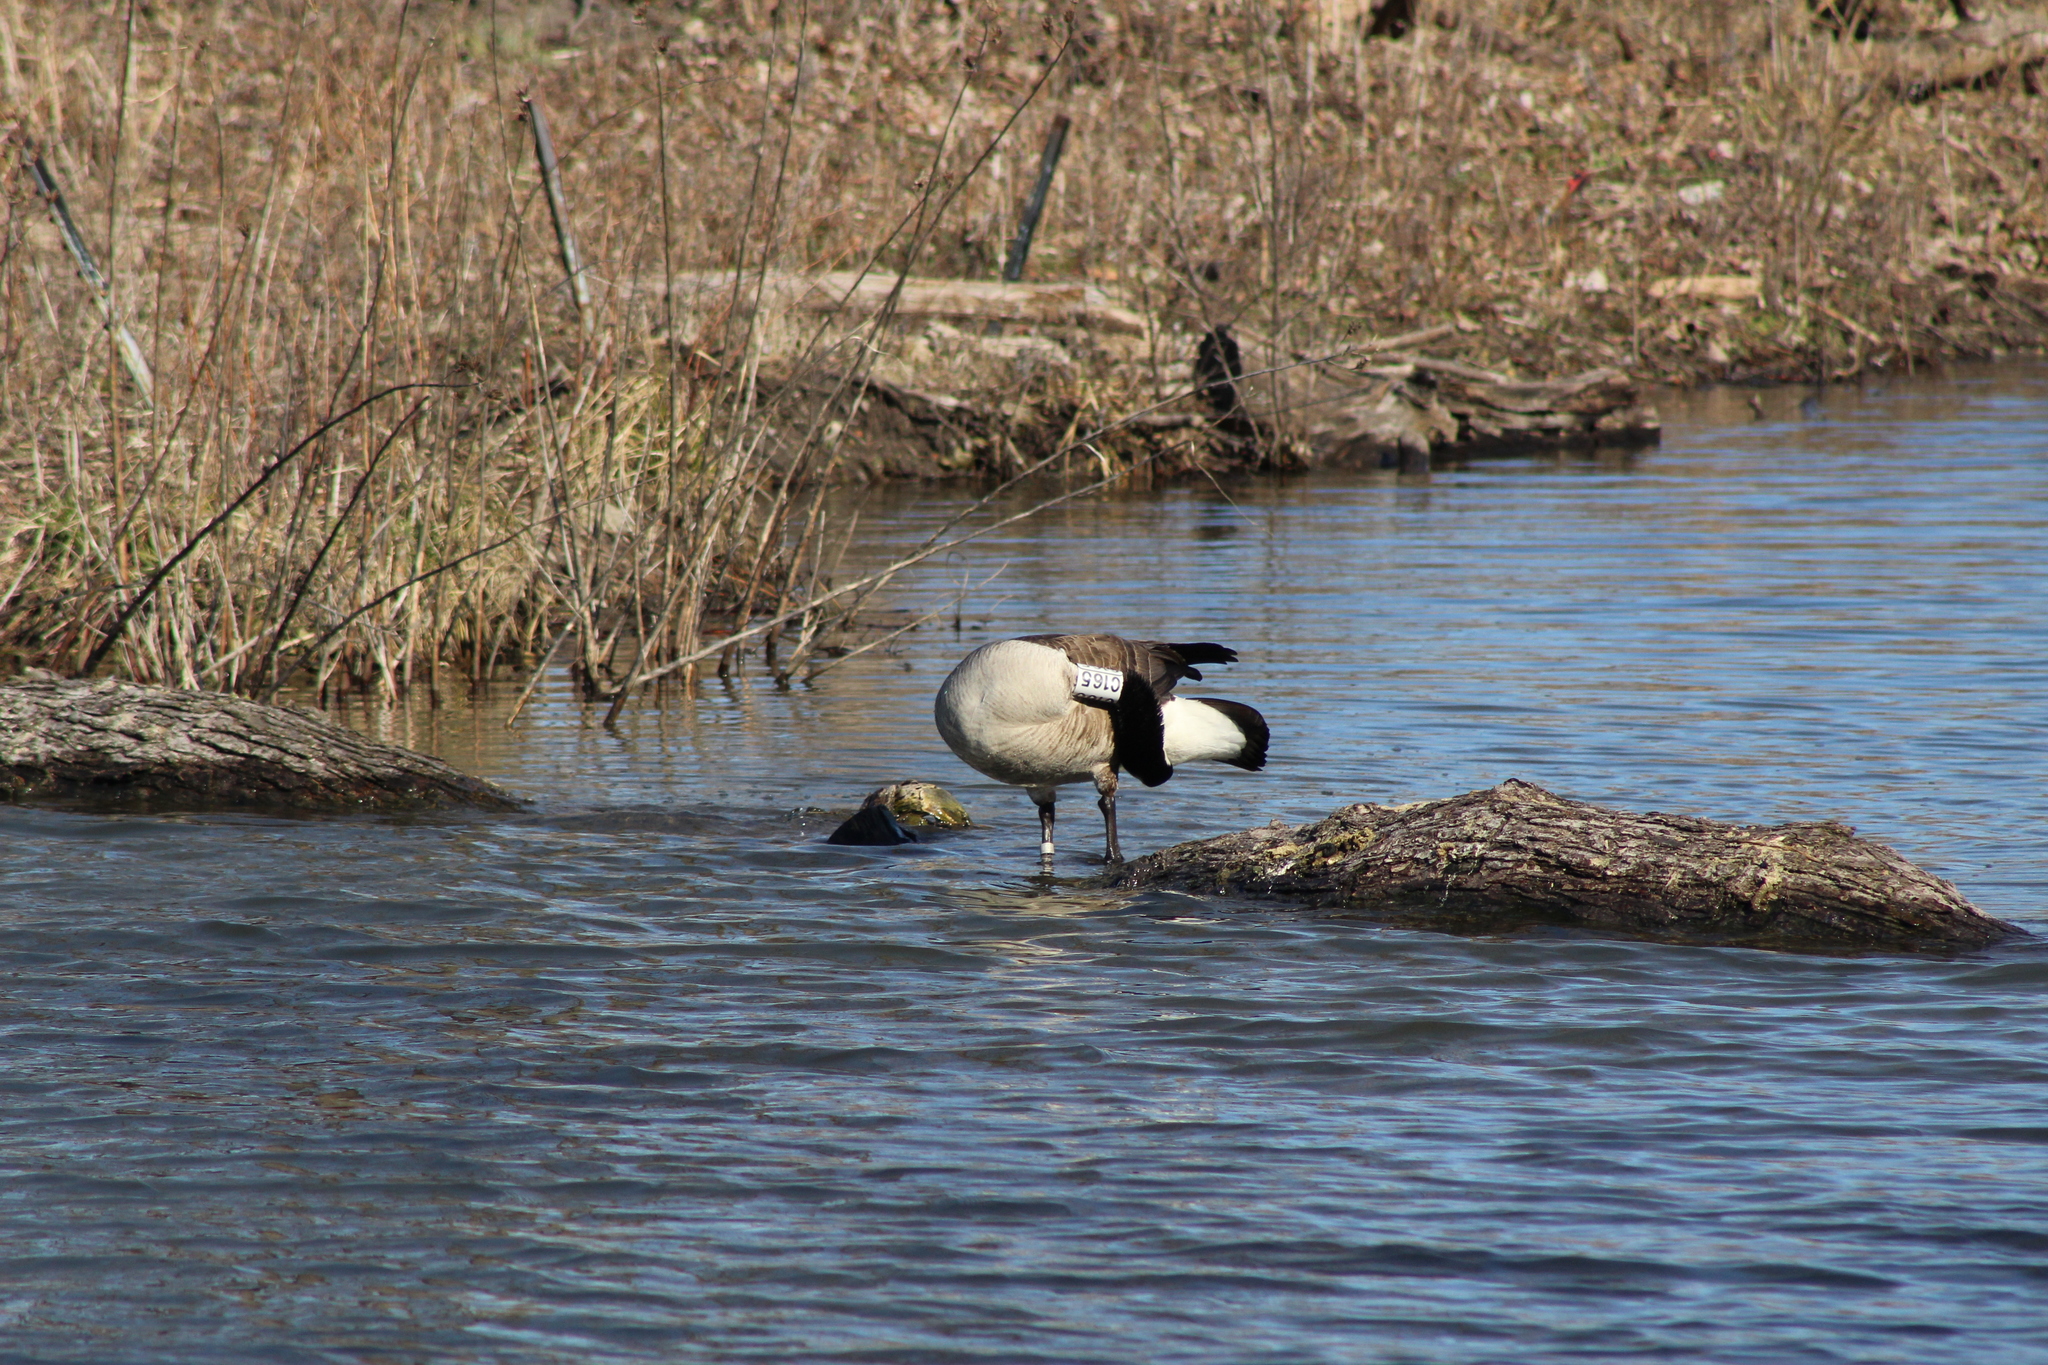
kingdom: Animalia
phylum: Chordata
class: Aves
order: Anseriformes
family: Anatidae
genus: Branta
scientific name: Branta canadensis
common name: Canada goose
